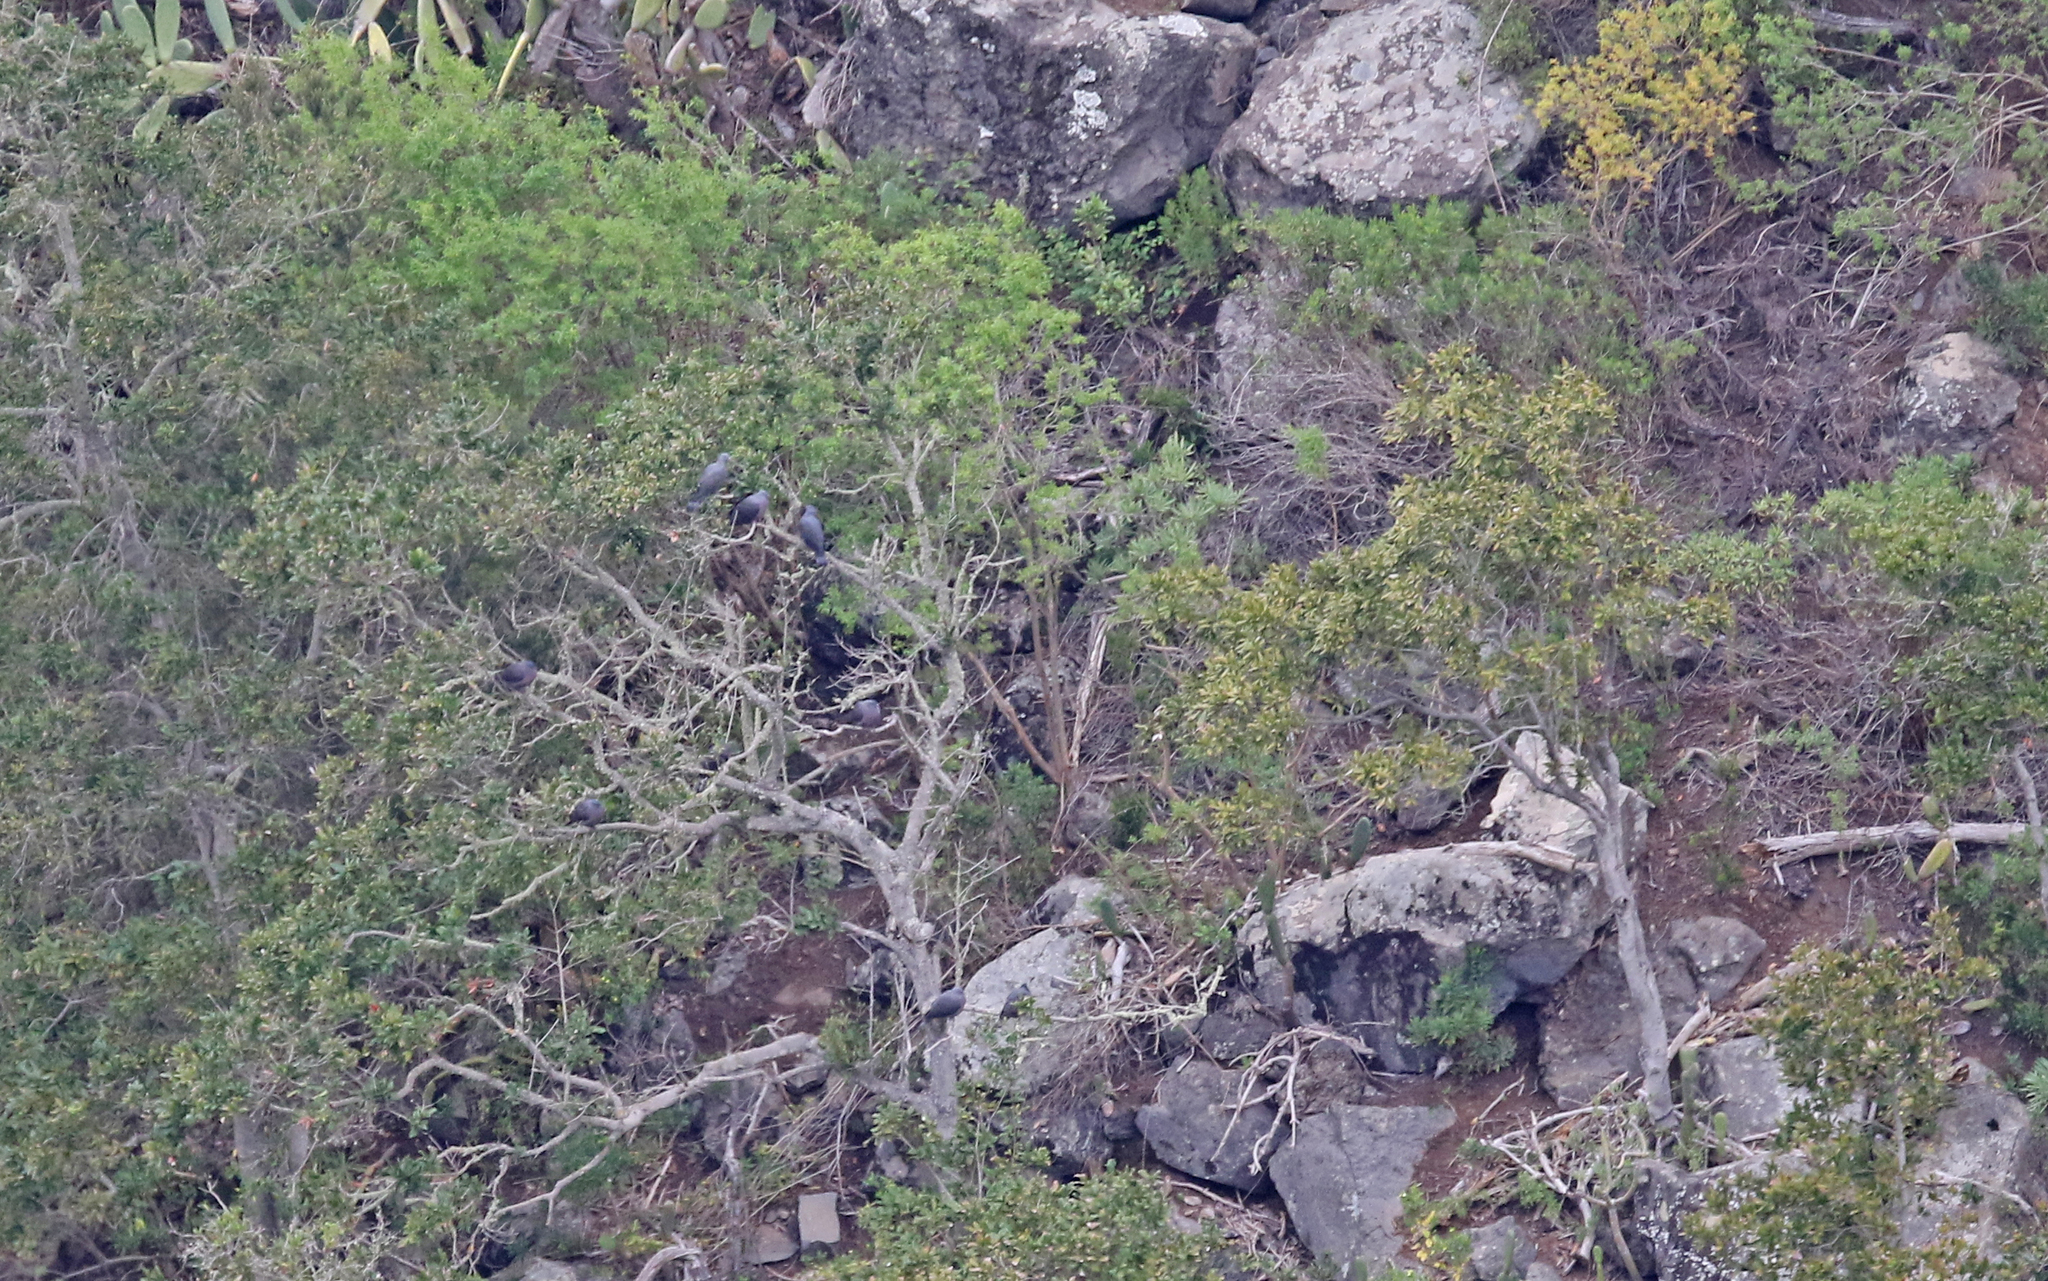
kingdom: Animalia
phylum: Chordata
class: Aves
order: Columbiformes
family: Columbidae
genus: Columba
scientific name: Columba bollii
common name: Bolle's pigeon
